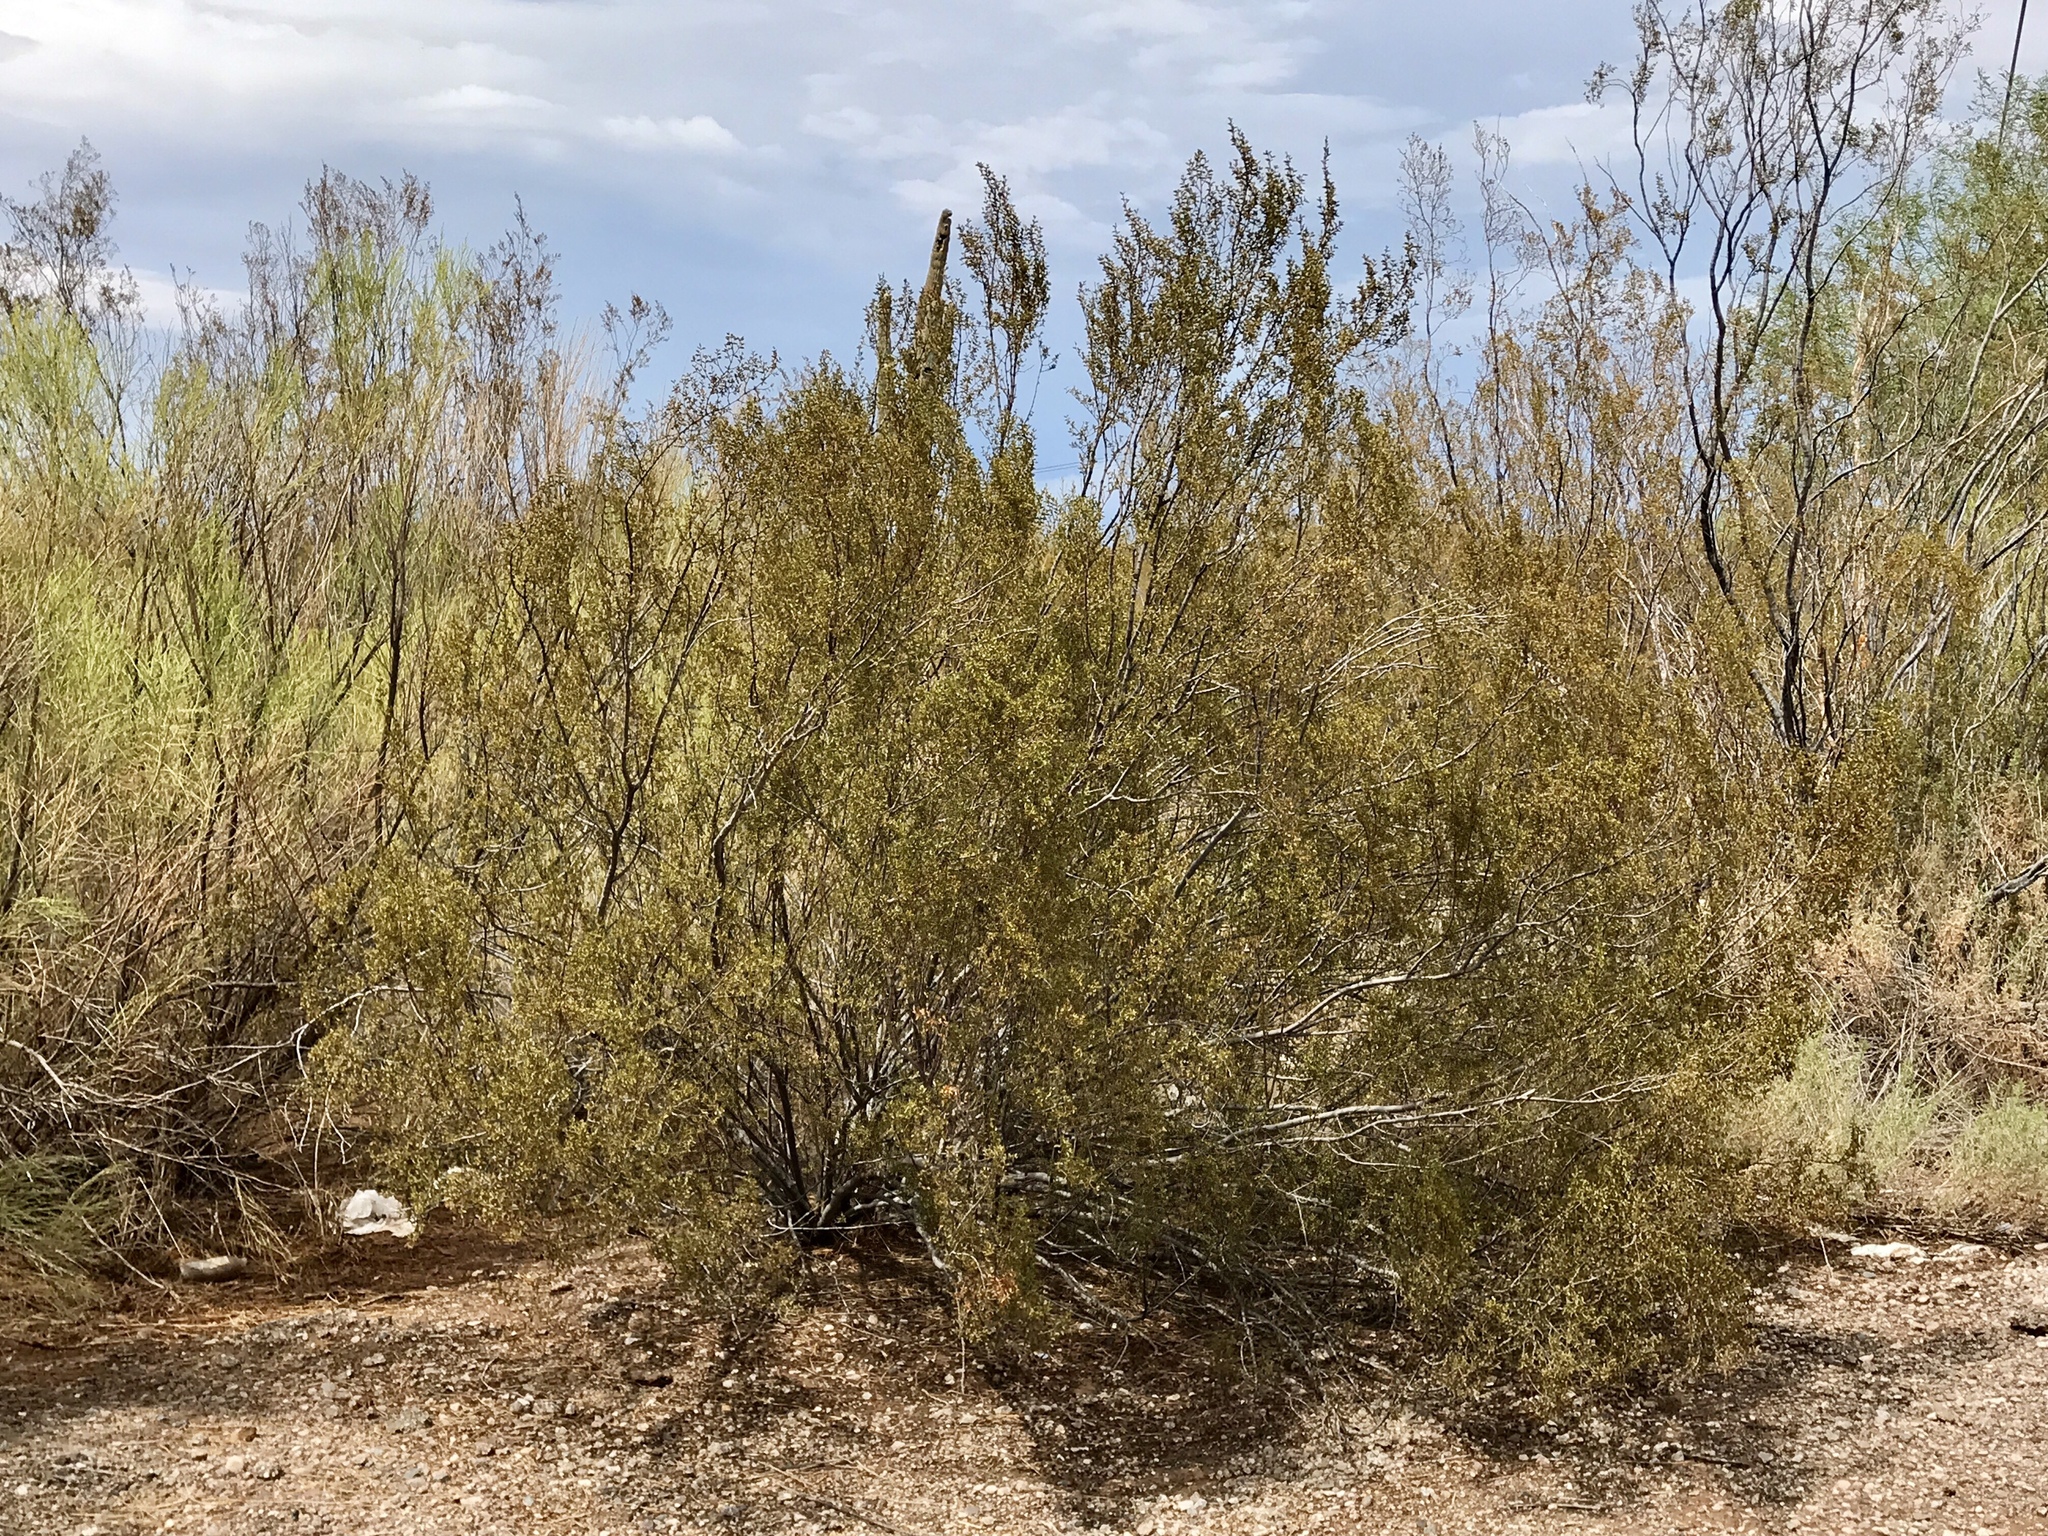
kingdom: Plantae
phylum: Tracheophyta
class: Magnoliopsida
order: Zygophyllales
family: Zygophyllaceae
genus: Larrea
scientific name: Larrea tridentata
